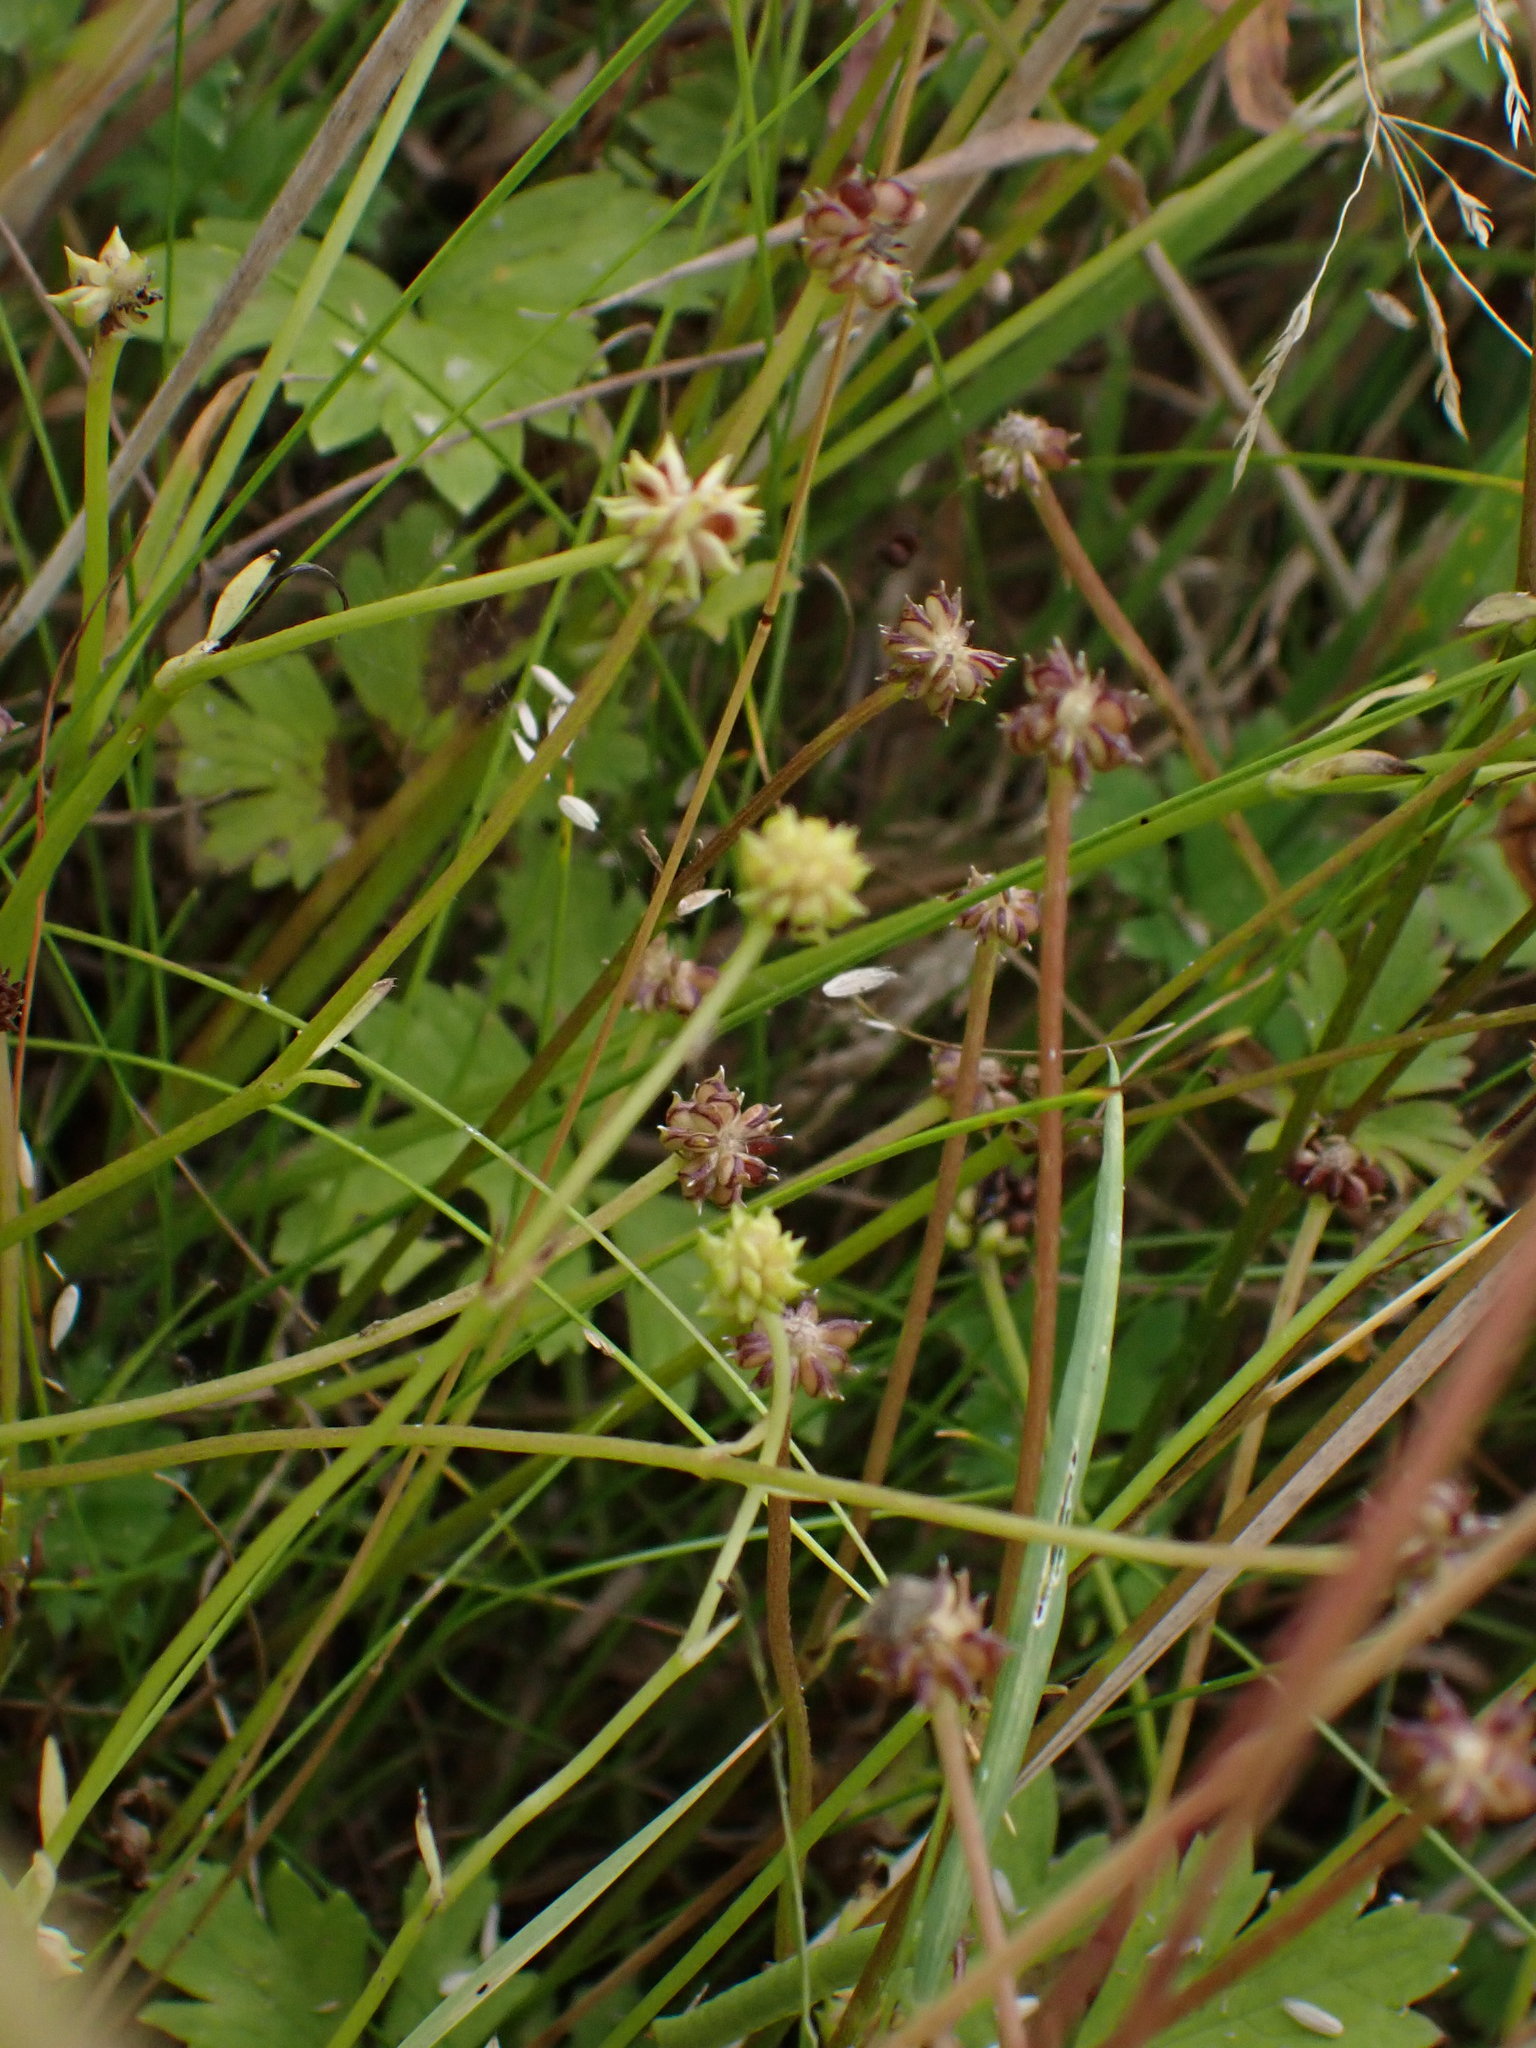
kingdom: Plantae
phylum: Tracheophyta
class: Magnoliopsida
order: Ranunculales
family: Ranunculaceae
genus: Ranunculus
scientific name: Ranunculus repens
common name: Creeping buttercup
